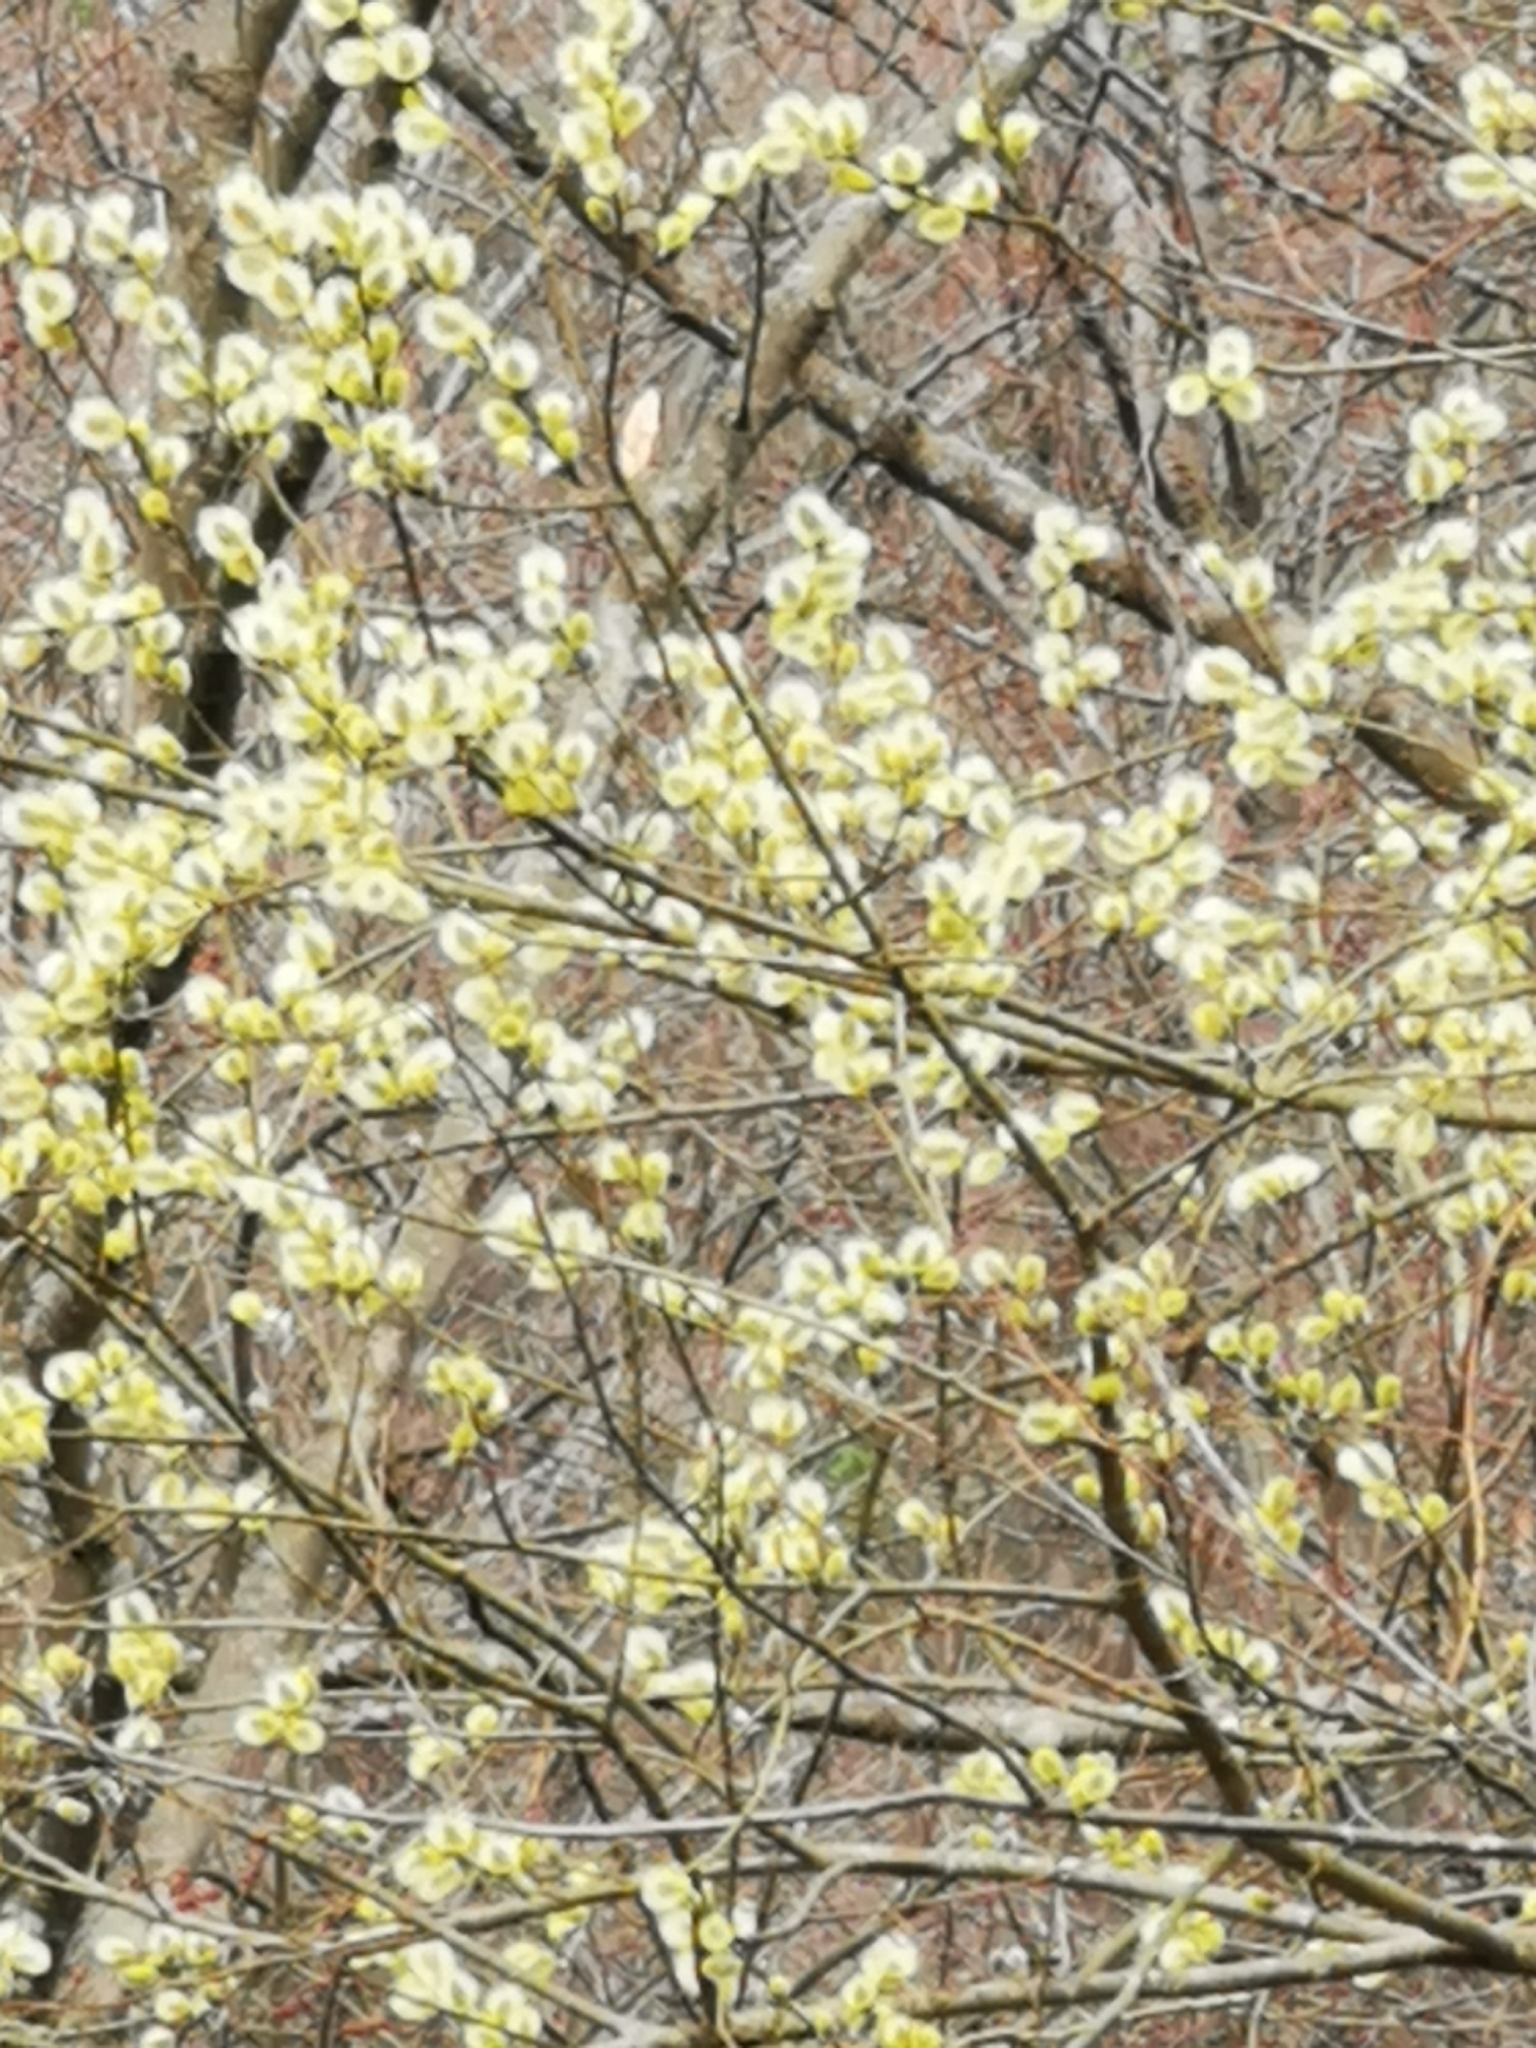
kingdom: Plantae
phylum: Tracheophyta
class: Magnoliopsida
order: Malpighiales
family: Salicaceae
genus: Salix
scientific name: Salix caprea
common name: Goat willow
